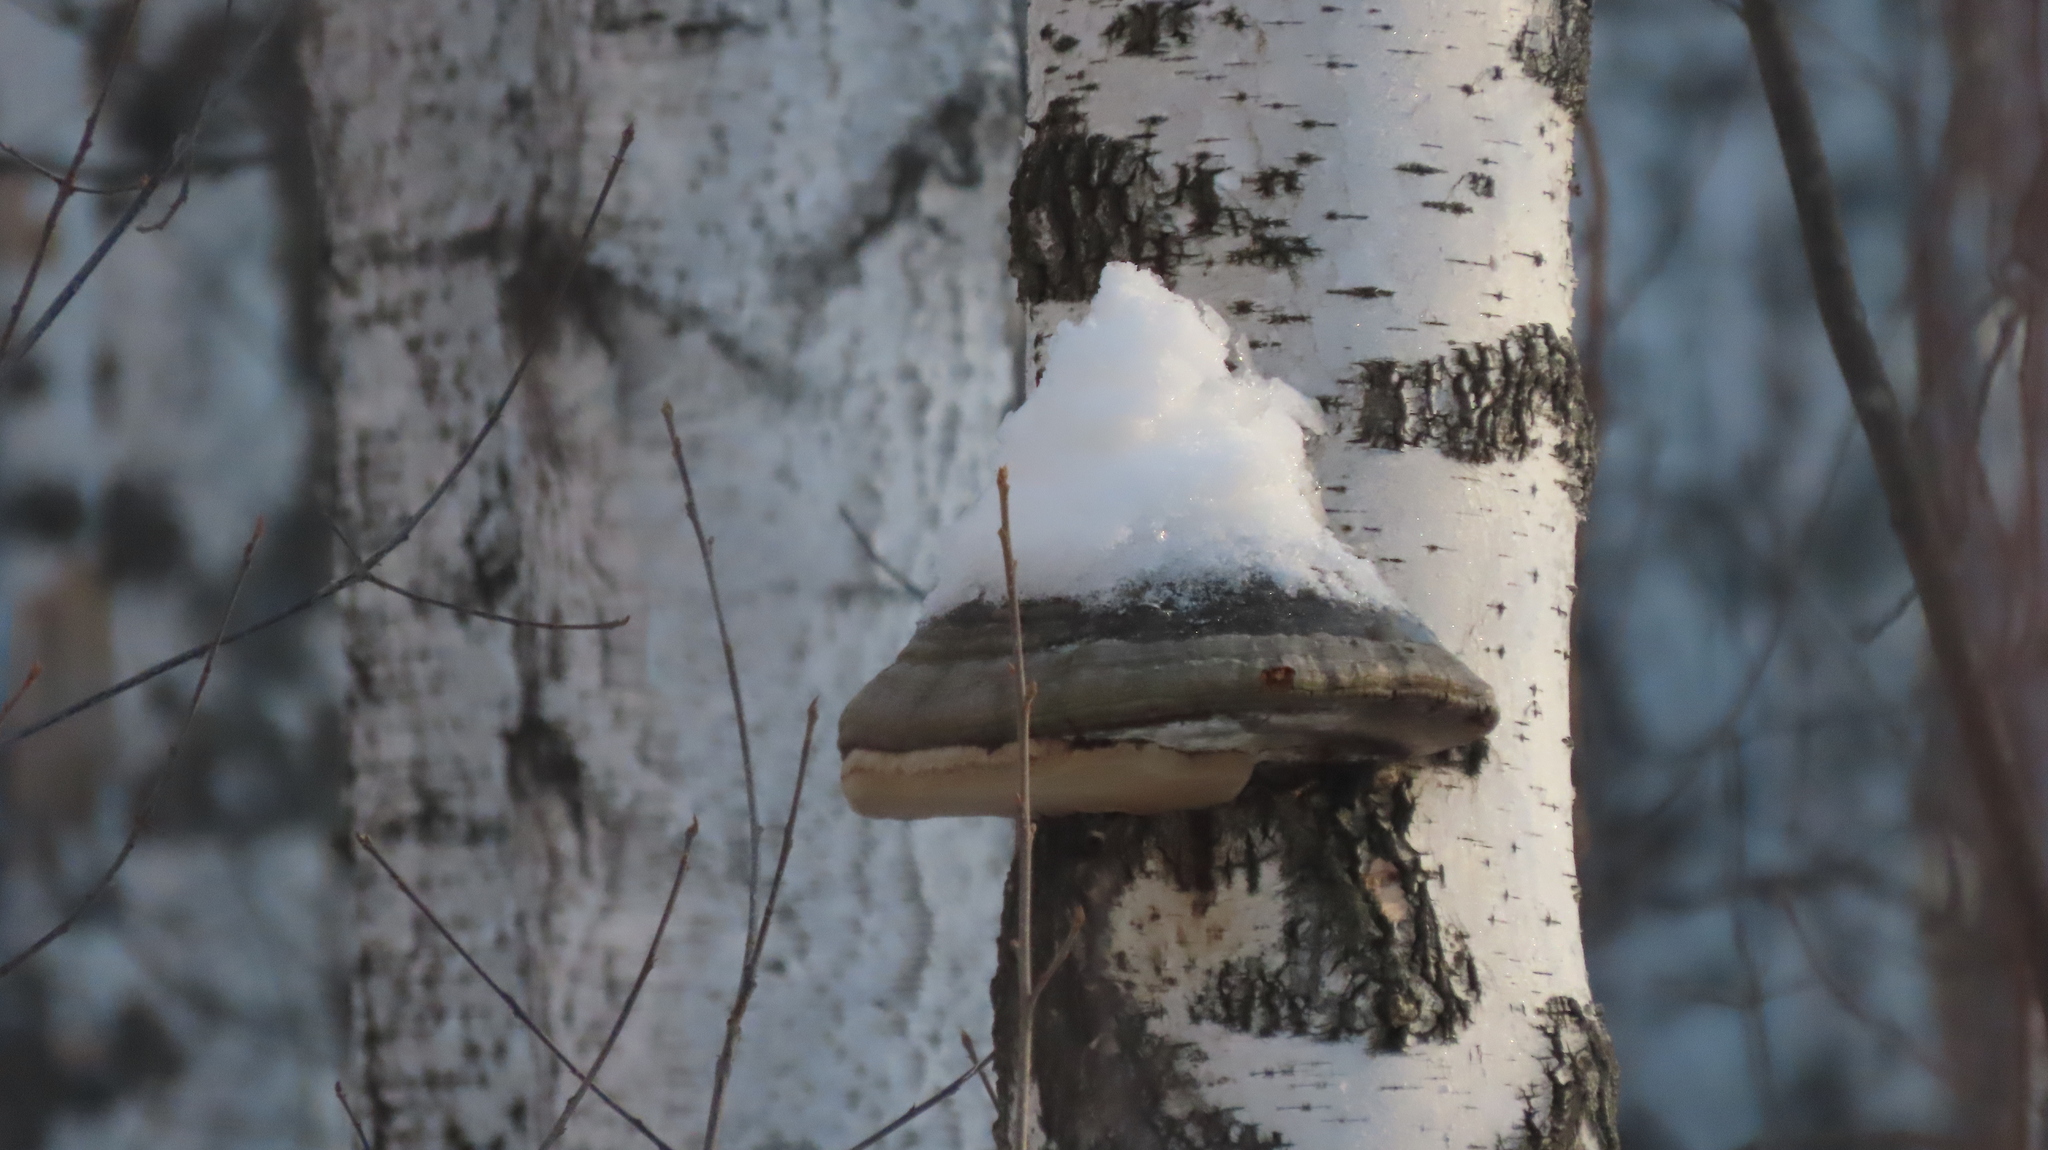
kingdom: Fungi
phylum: Basidiomycota
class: Agaricomycetes
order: Polyporales
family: Polyporaceae
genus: Fomes
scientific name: Fomes fomentarius
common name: Hoof fungus
